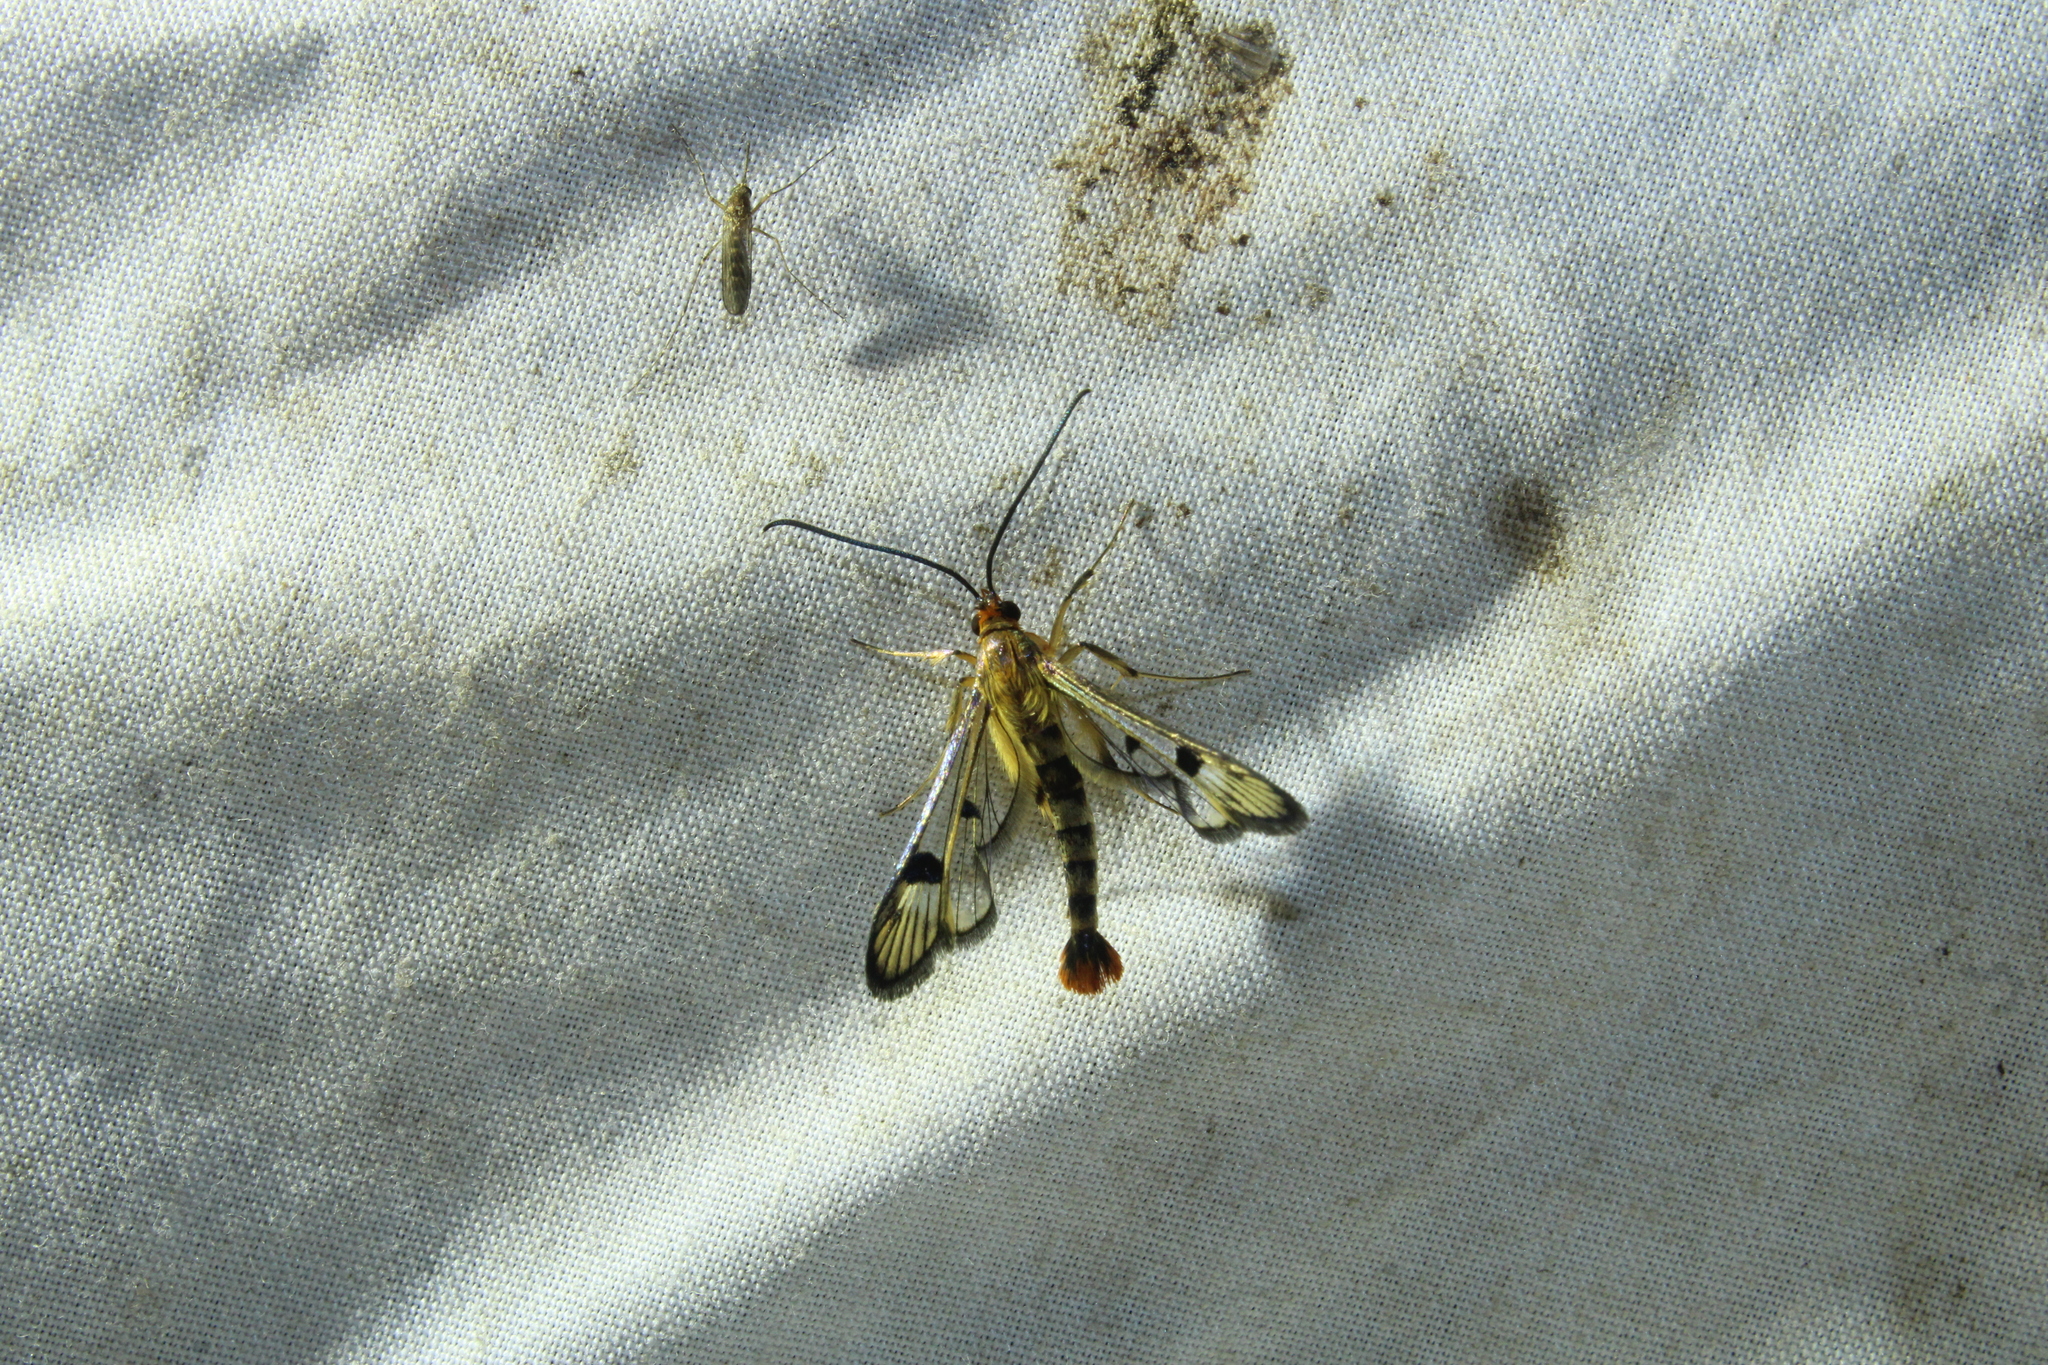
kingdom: Animalia
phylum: Arthropoda
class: Insecta
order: Lepidoptera
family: Sesiidae
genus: Synanthedon
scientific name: Synanthedon acerni
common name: Maple callus borer moth
